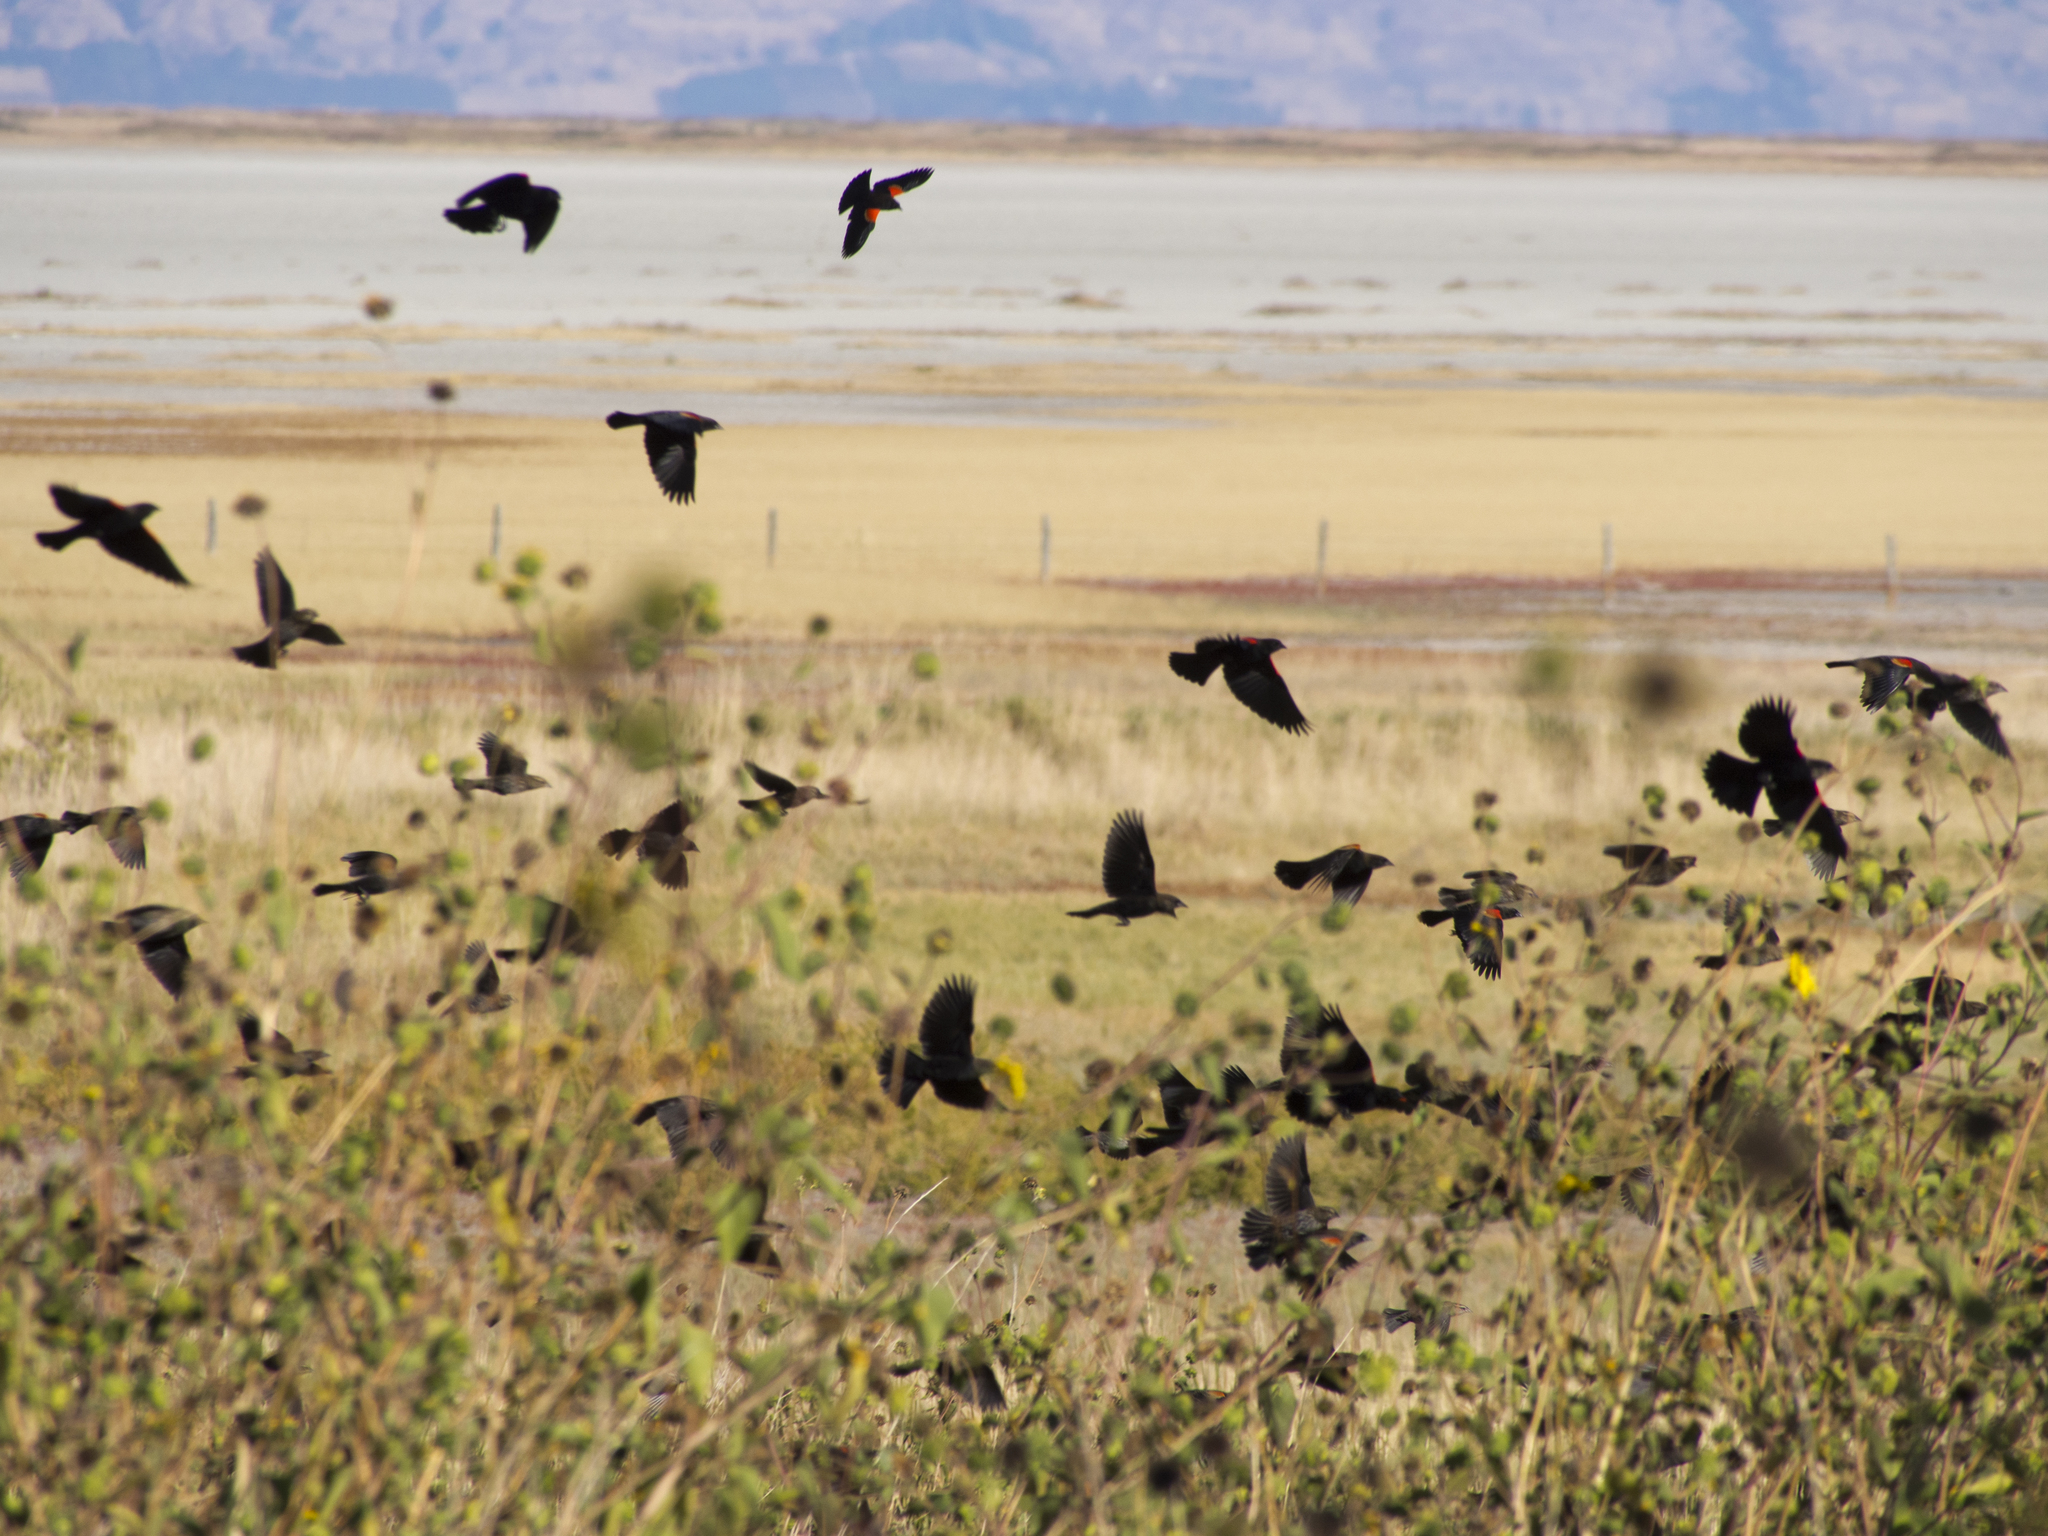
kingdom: Animalia
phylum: Chordata
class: Aves
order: Passeriformes
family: Icteridae
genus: Agelaius
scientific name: Agelaius phoeniceus
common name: Red-winged blackbird
